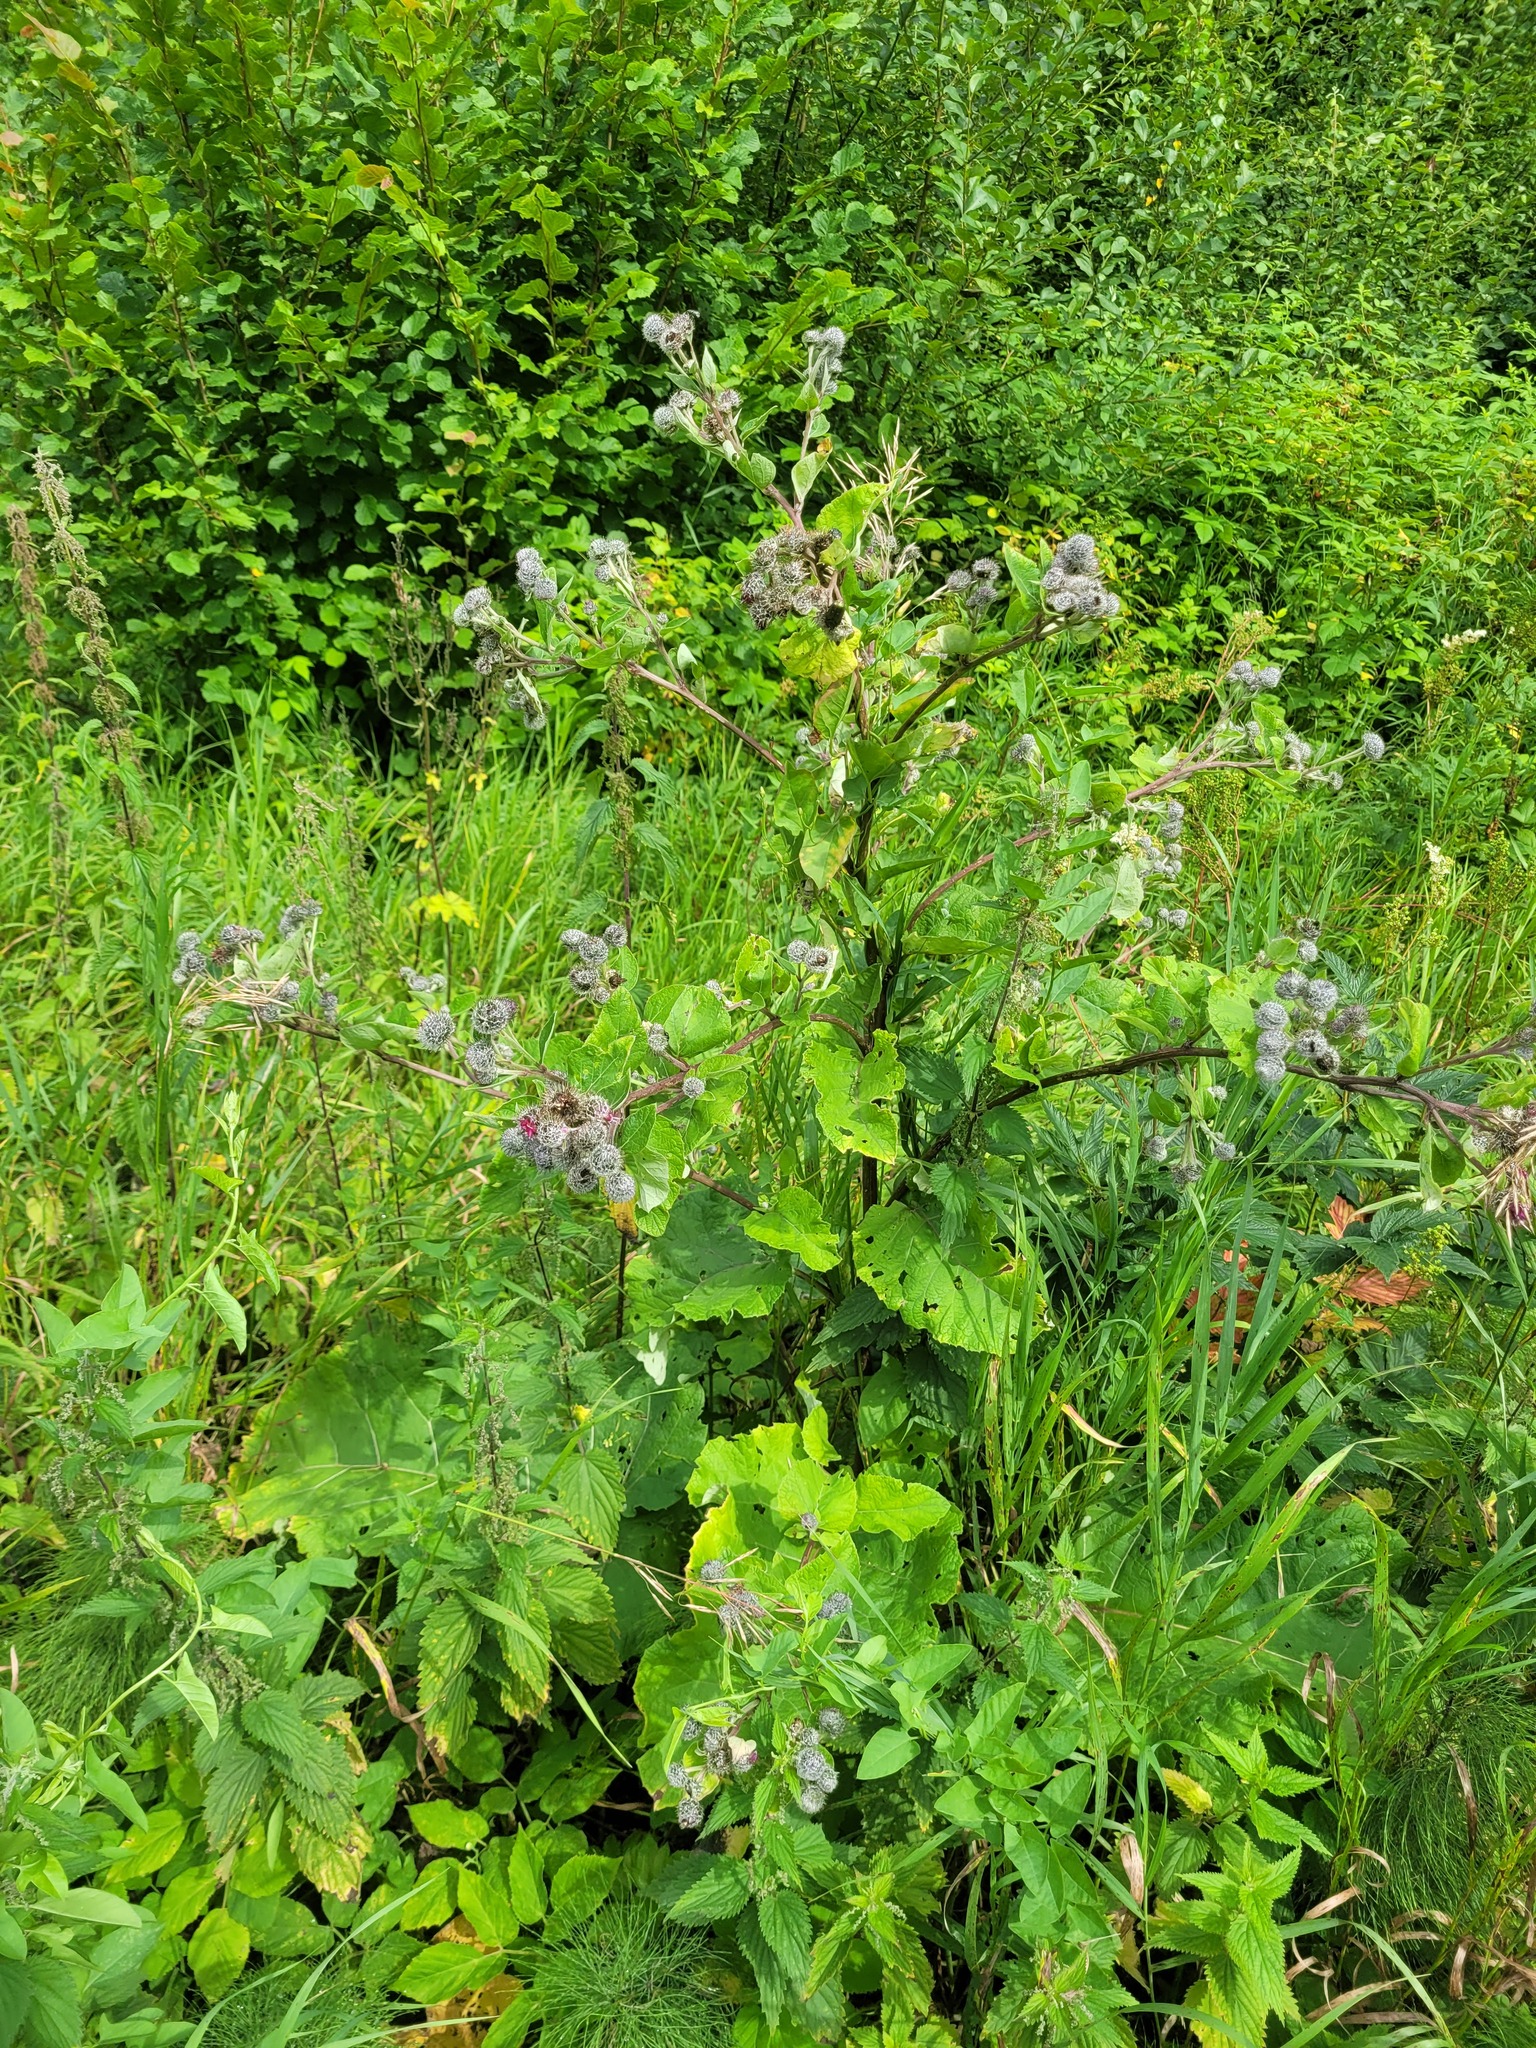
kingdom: Plantae
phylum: Tracheophyta
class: Magnoliopsida
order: Asterales
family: Asteraceae
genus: Arctium
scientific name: Arctium tomentosum
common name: Woolly burdock
